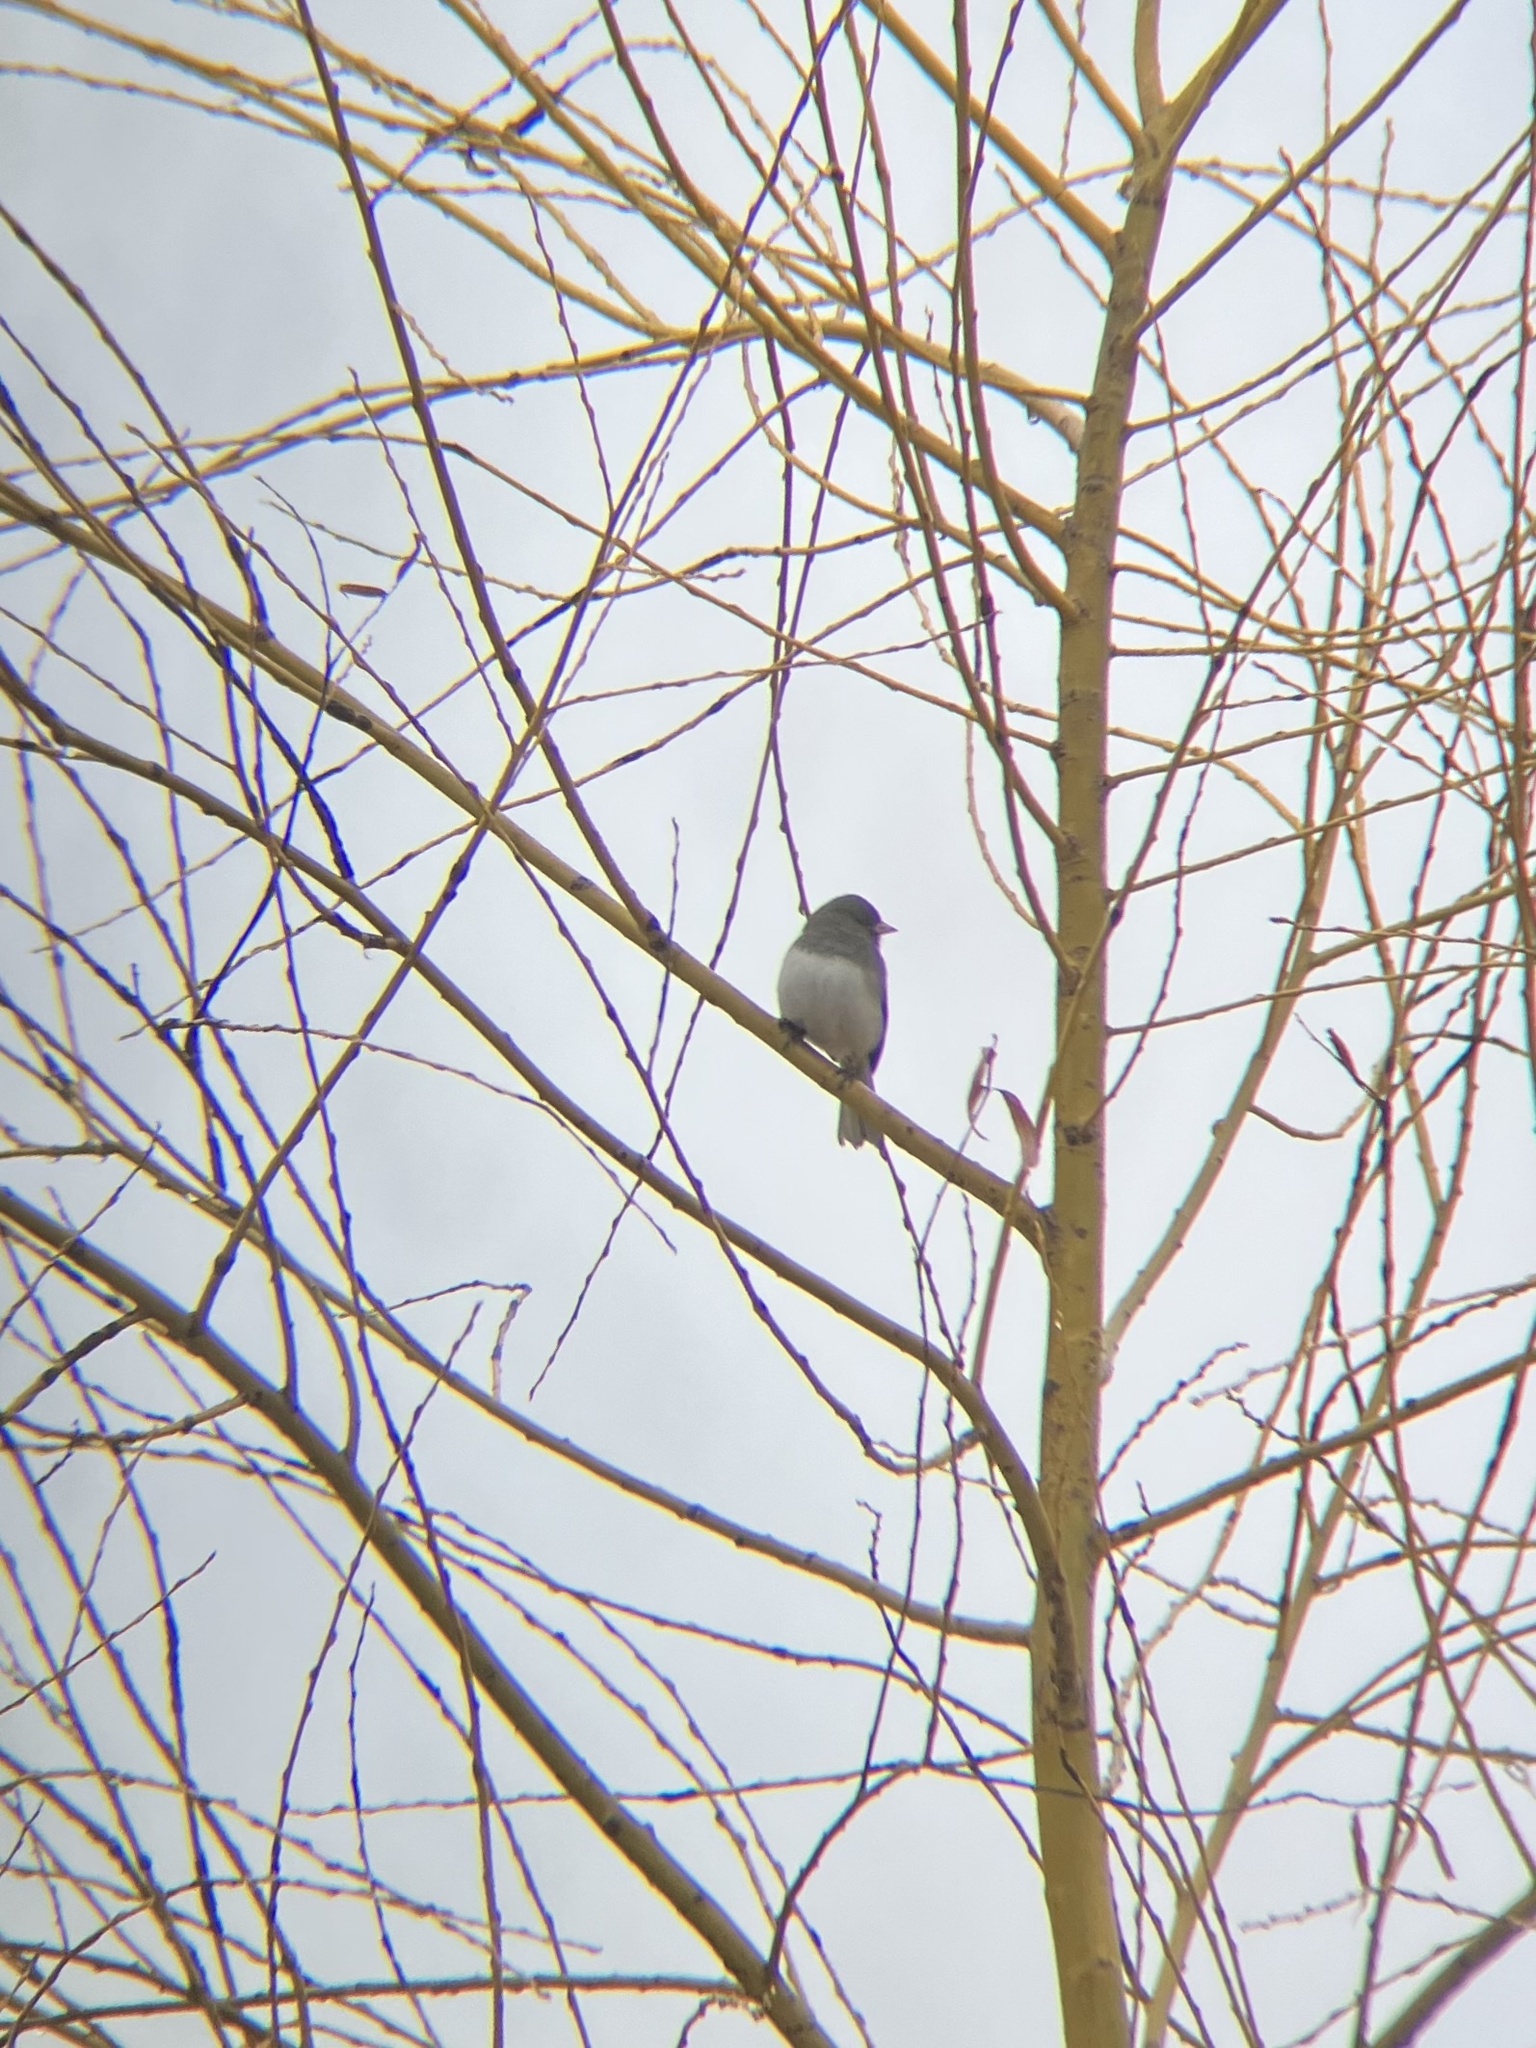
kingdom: Animalia
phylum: Chordata
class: Aves
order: Passeriformes
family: Passerellidae
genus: Junco
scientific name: Junco hyemalis
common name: Dark-eyed junco
